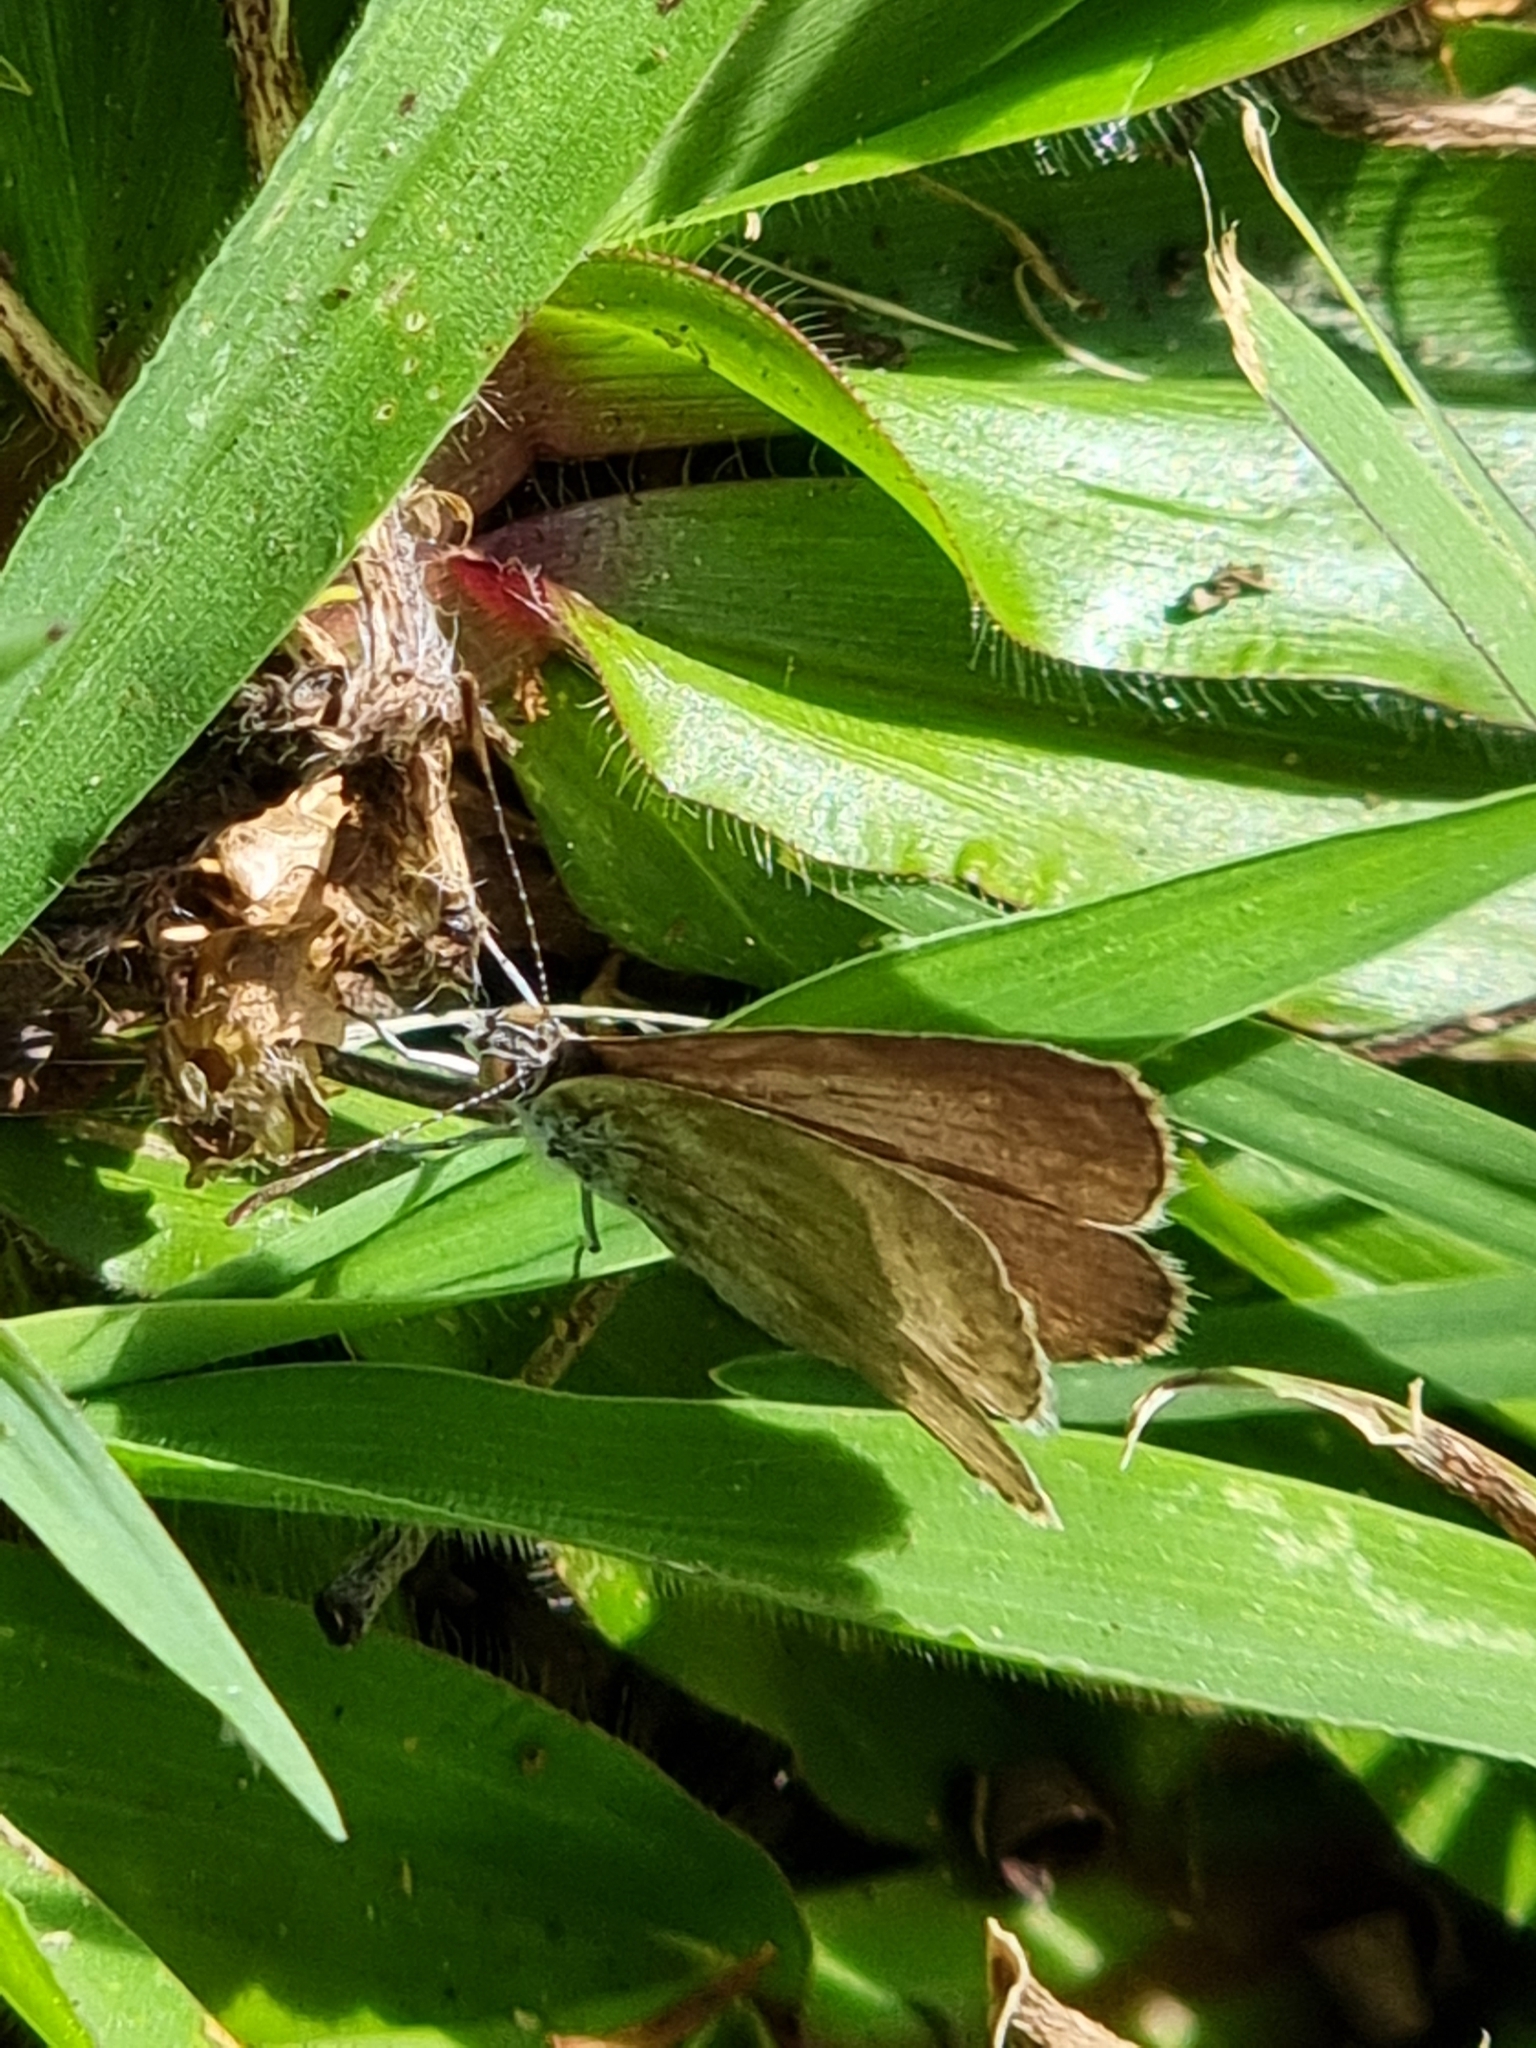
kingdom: Animalia
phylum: Arthropoda
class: Insecta
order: Lepidoptera
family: Lycaenidae
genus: Zizina
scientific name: Zizina otis
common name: Lesser grass blue
